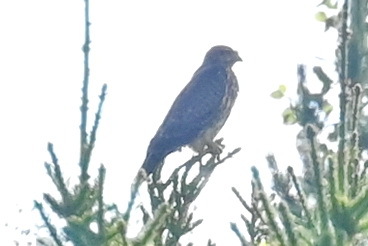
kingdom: Animalia
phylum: Chordata
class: Aves
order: Accipitriformes
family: Accipitridae
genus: Buteo
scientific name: Buteo buteo
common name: Common buzzard
